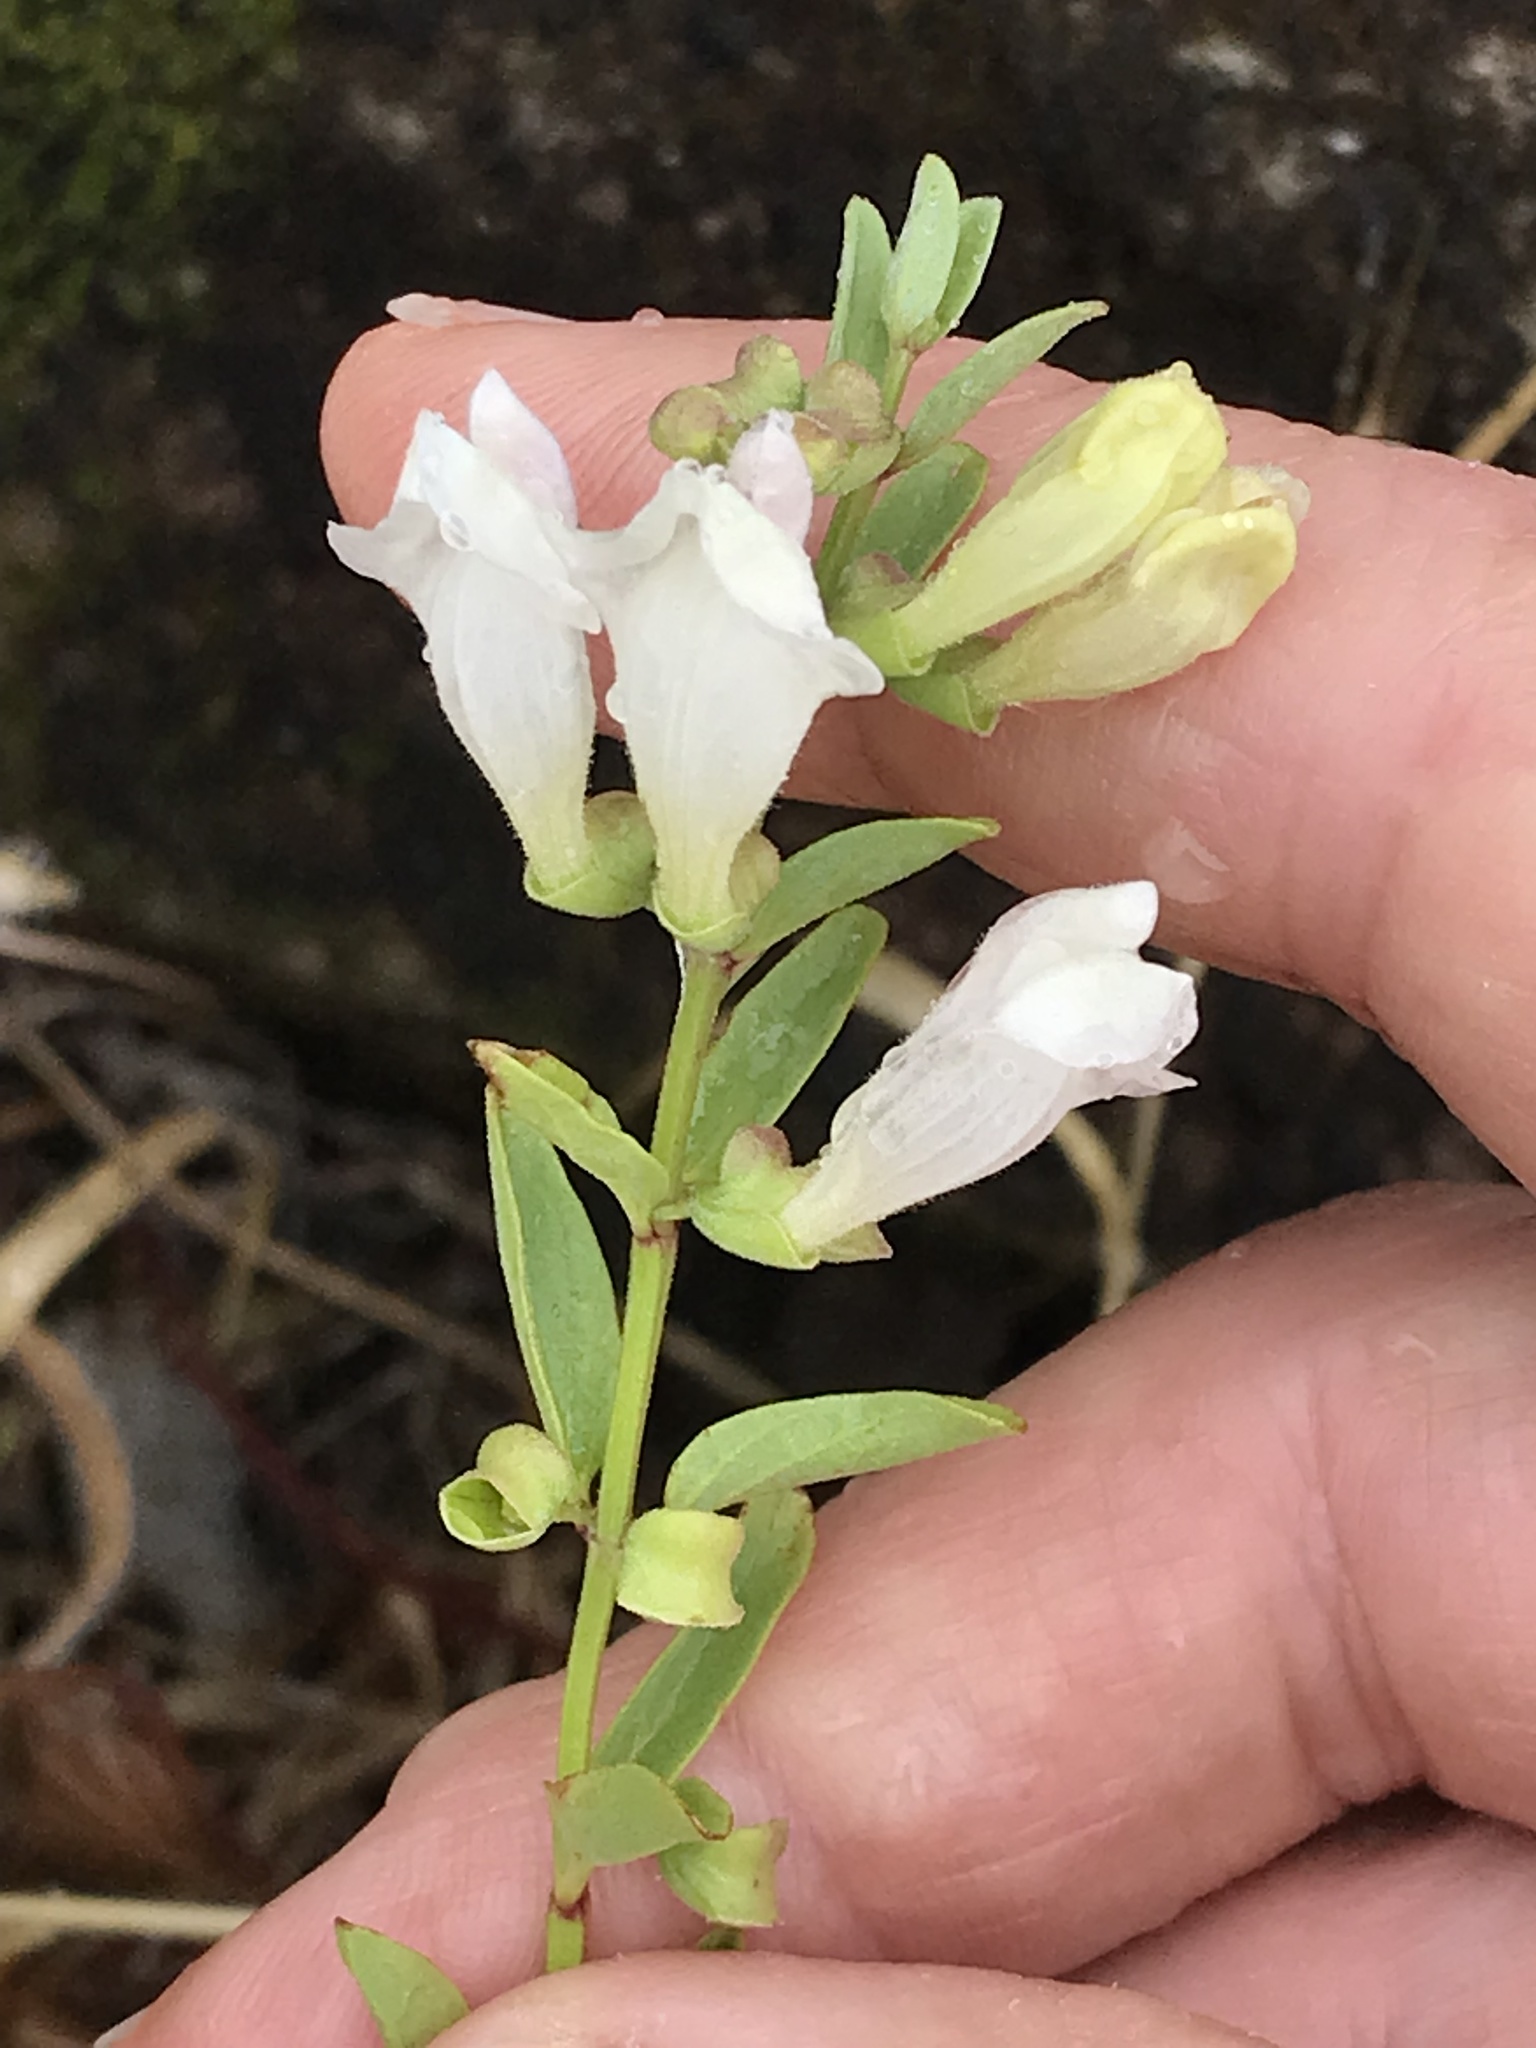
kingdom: Plantae
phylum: Tracheophyta
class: Magnoliopsida
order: Lamiales
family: Lamiaceae
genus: Scutellaria
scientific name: Scutellaria californica
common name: California scullcap
